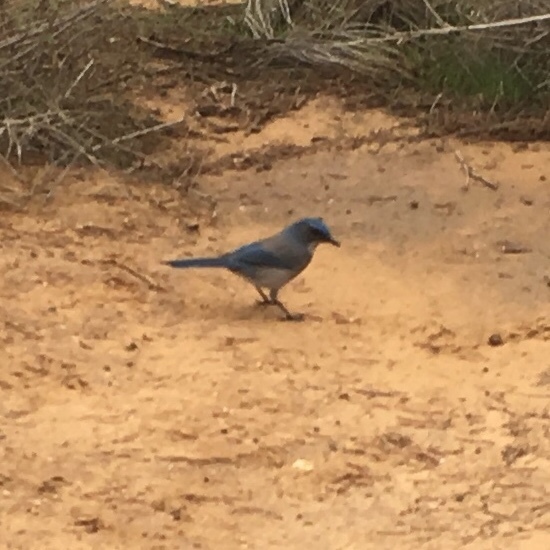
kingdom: Animalia
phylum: Chordata
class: Aves
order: Passeriformes
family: Corvidae
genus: Aphelocoma
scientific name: Aphelocoma woodhouseii
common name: Woodhouse's scrub-jay
